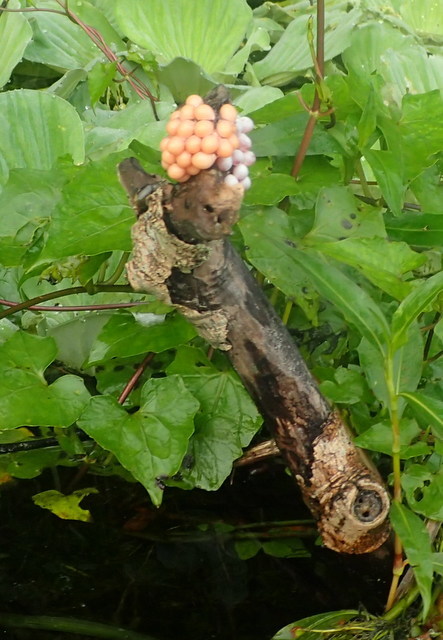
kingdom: Animalia
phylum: Mollusca
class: Gastropoda
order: Architaenioglossa
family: Ampullariidae
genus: Pomacea
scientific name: Pomacea paludosa
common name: Florida applesnail
